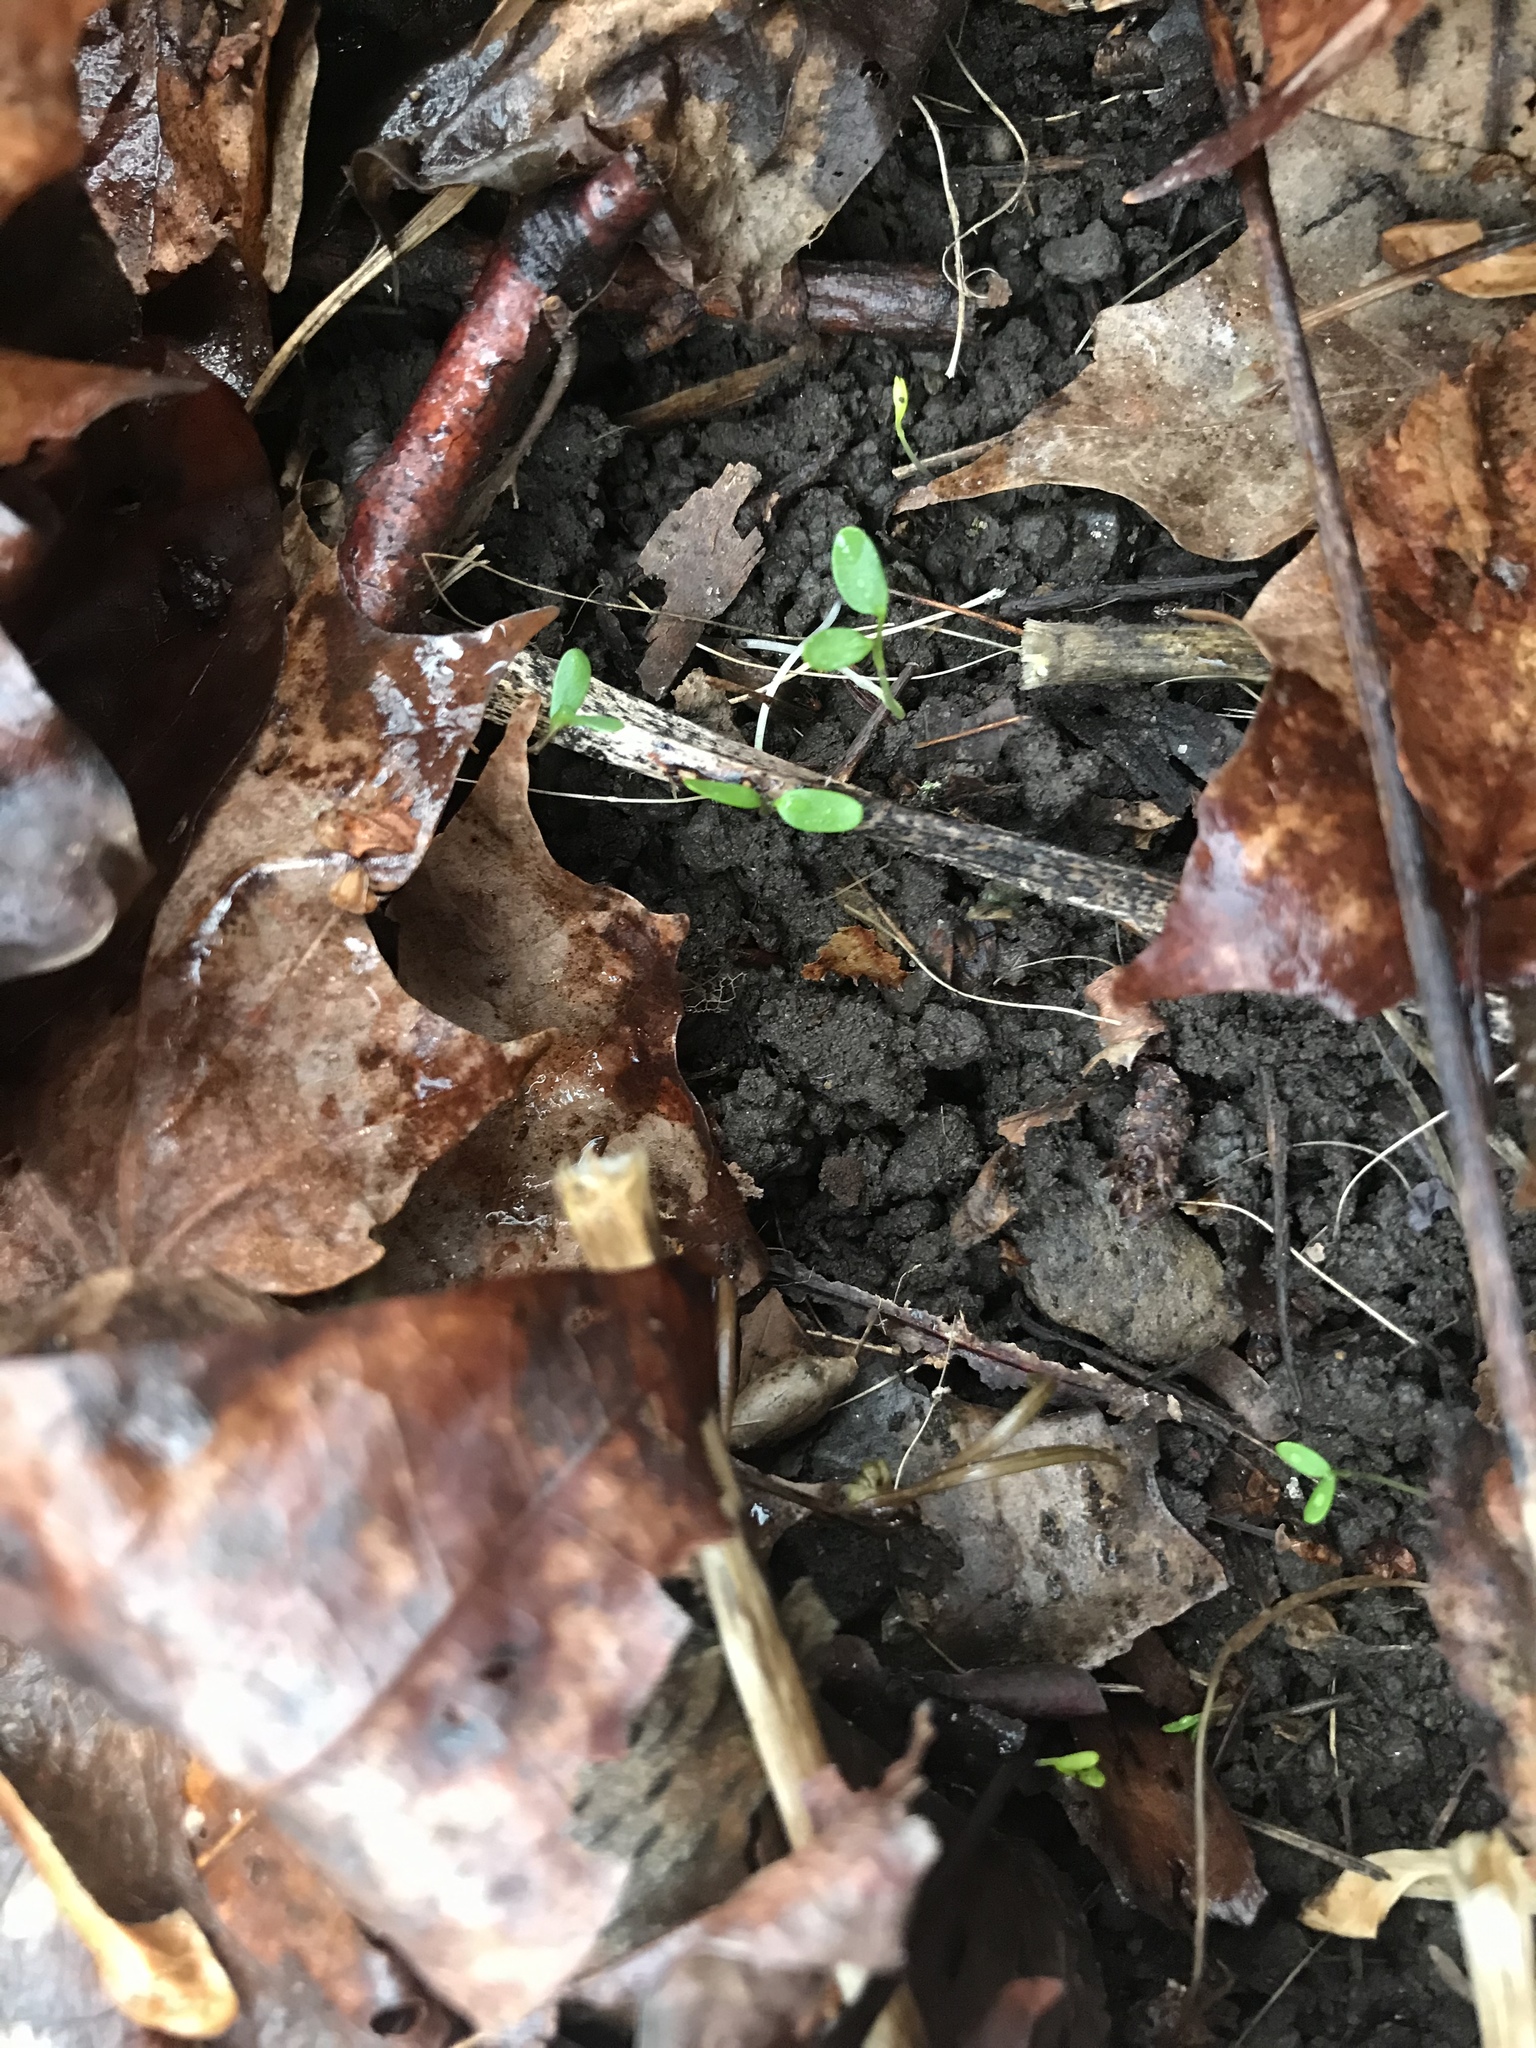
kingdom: Plantae
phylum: Tracheophyta
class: Magnoliopsida
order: Brassicales
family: Brassicaceae
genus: Alliaria
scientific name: Alliaria petiolata
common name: Garlic mustard
